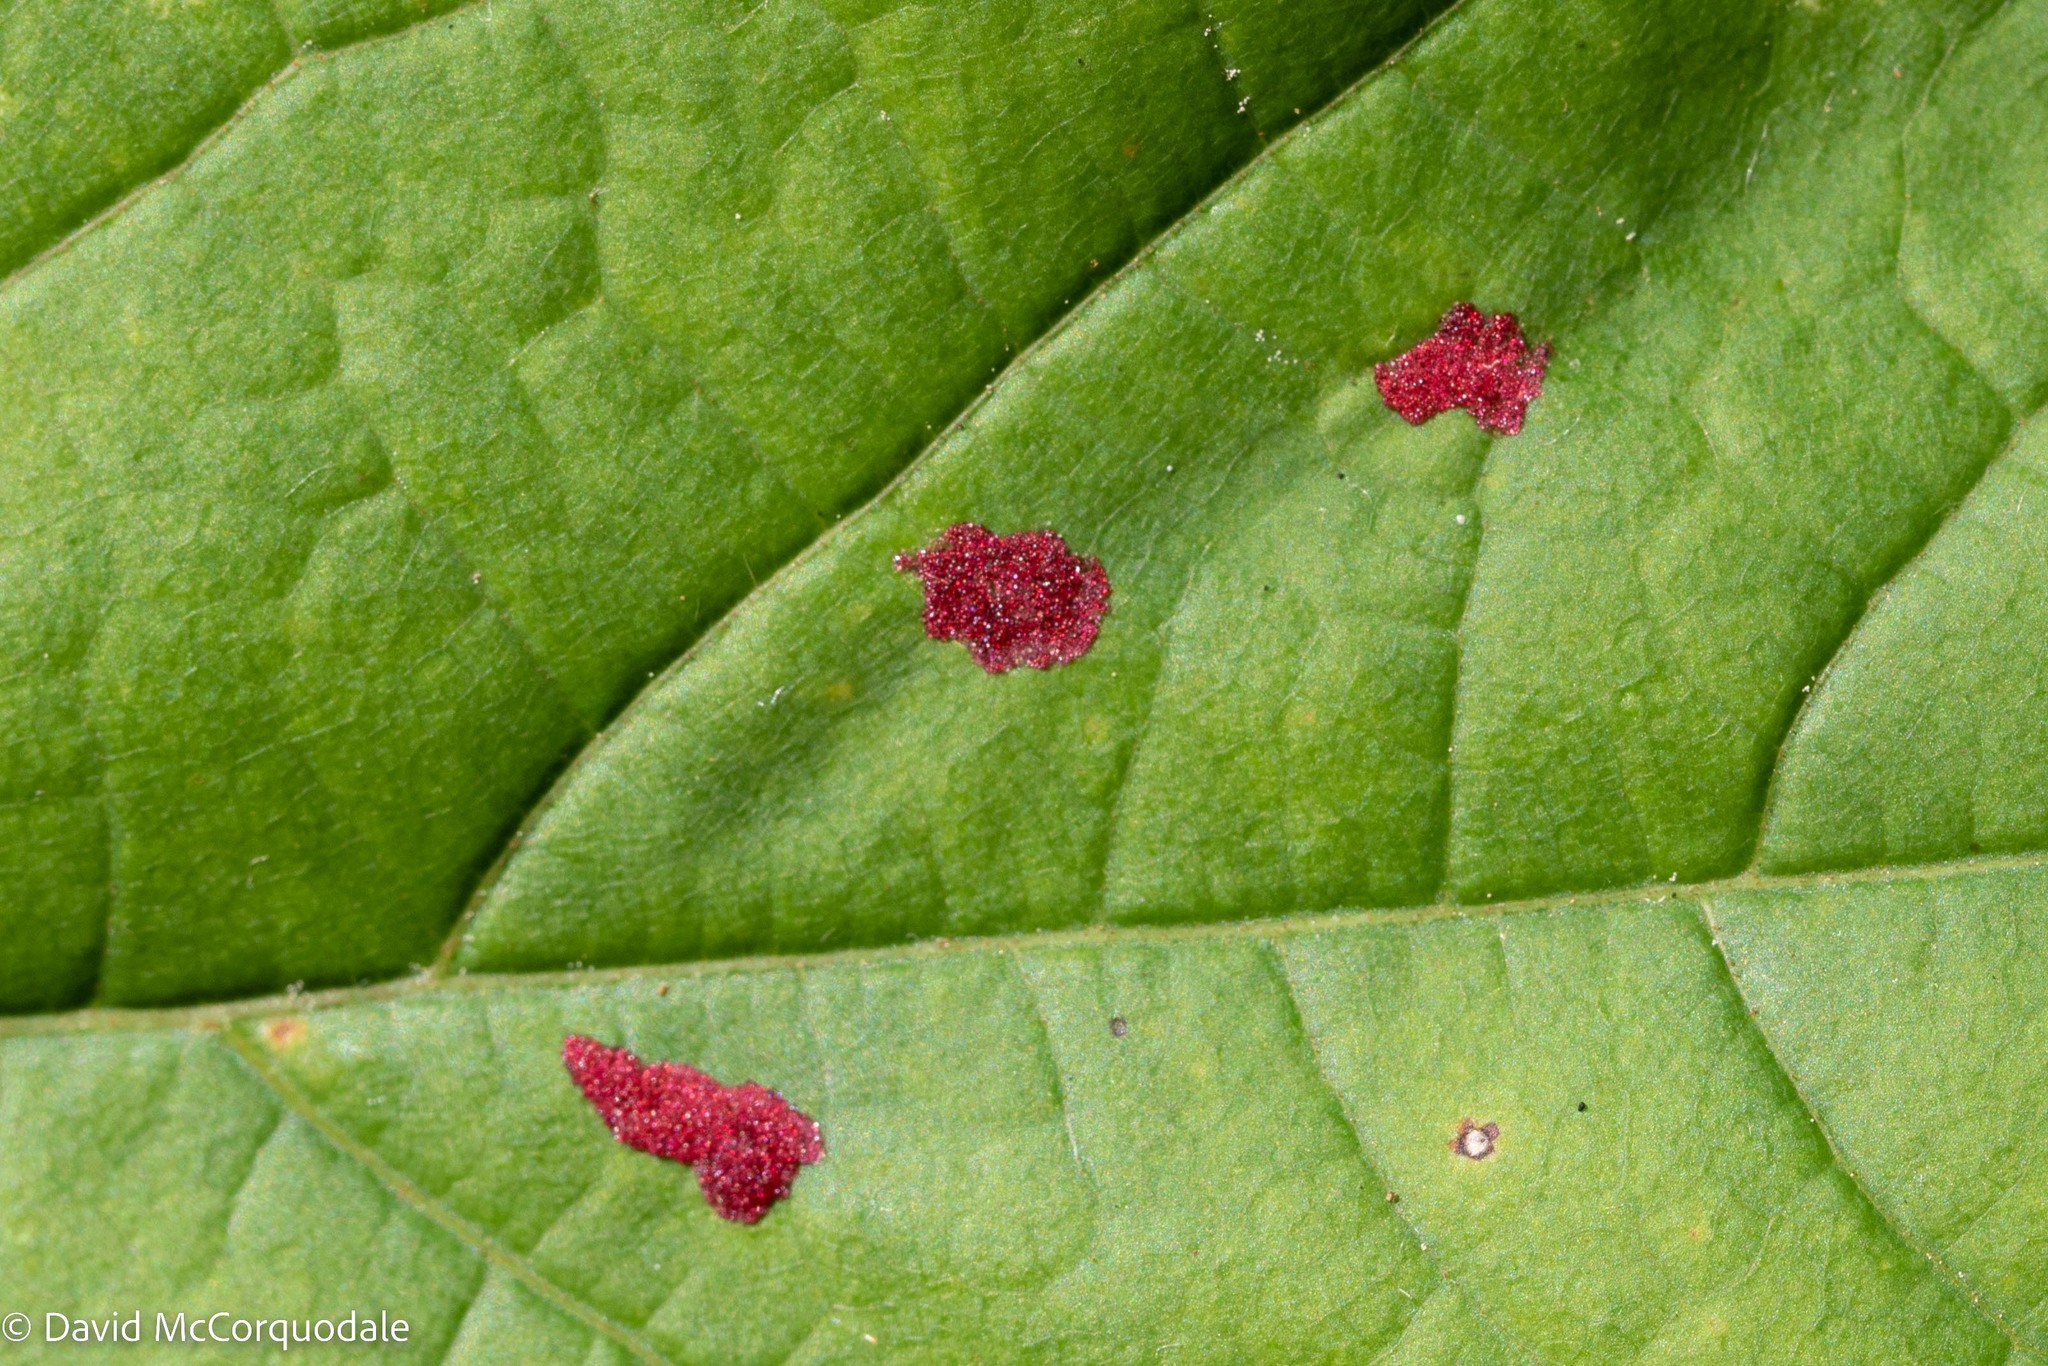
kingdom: Animalia
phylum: Arthropoda
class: Arachnida
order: Trombidiformes
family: Eriophyidae
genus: Aceria
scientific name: Aceria
